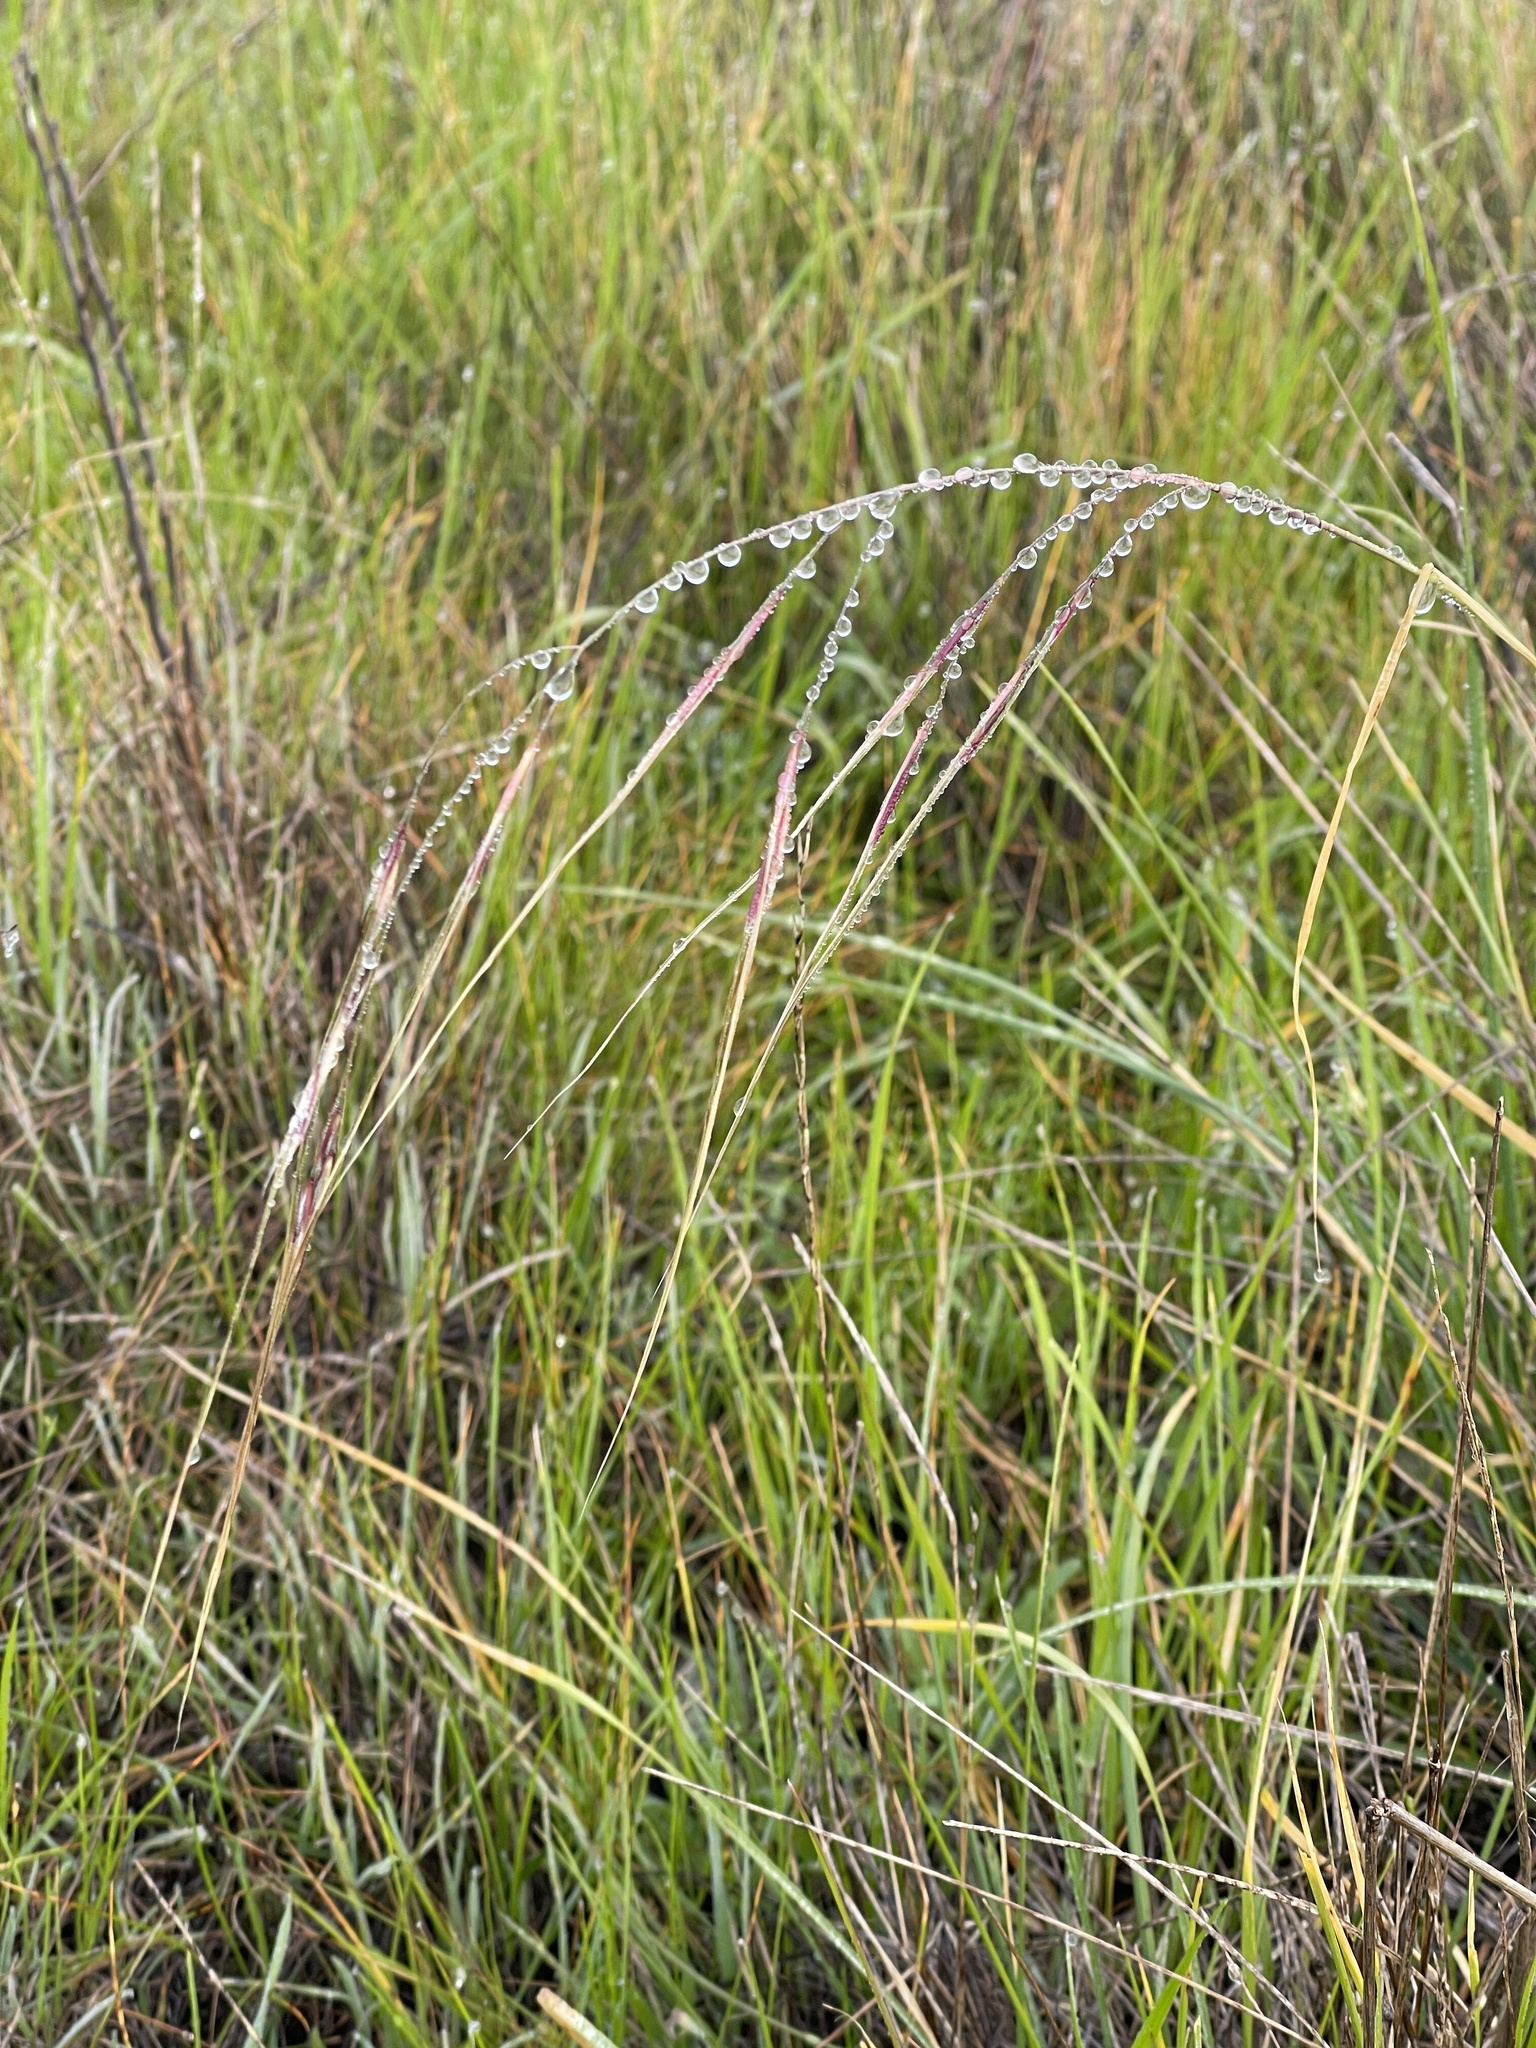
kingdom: Plantae
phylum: Tracheophyta
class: Liliopsida
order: Poales
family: Poaceae
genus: Nassella
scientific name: Nassella pulchra
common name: Purple needlegrass
